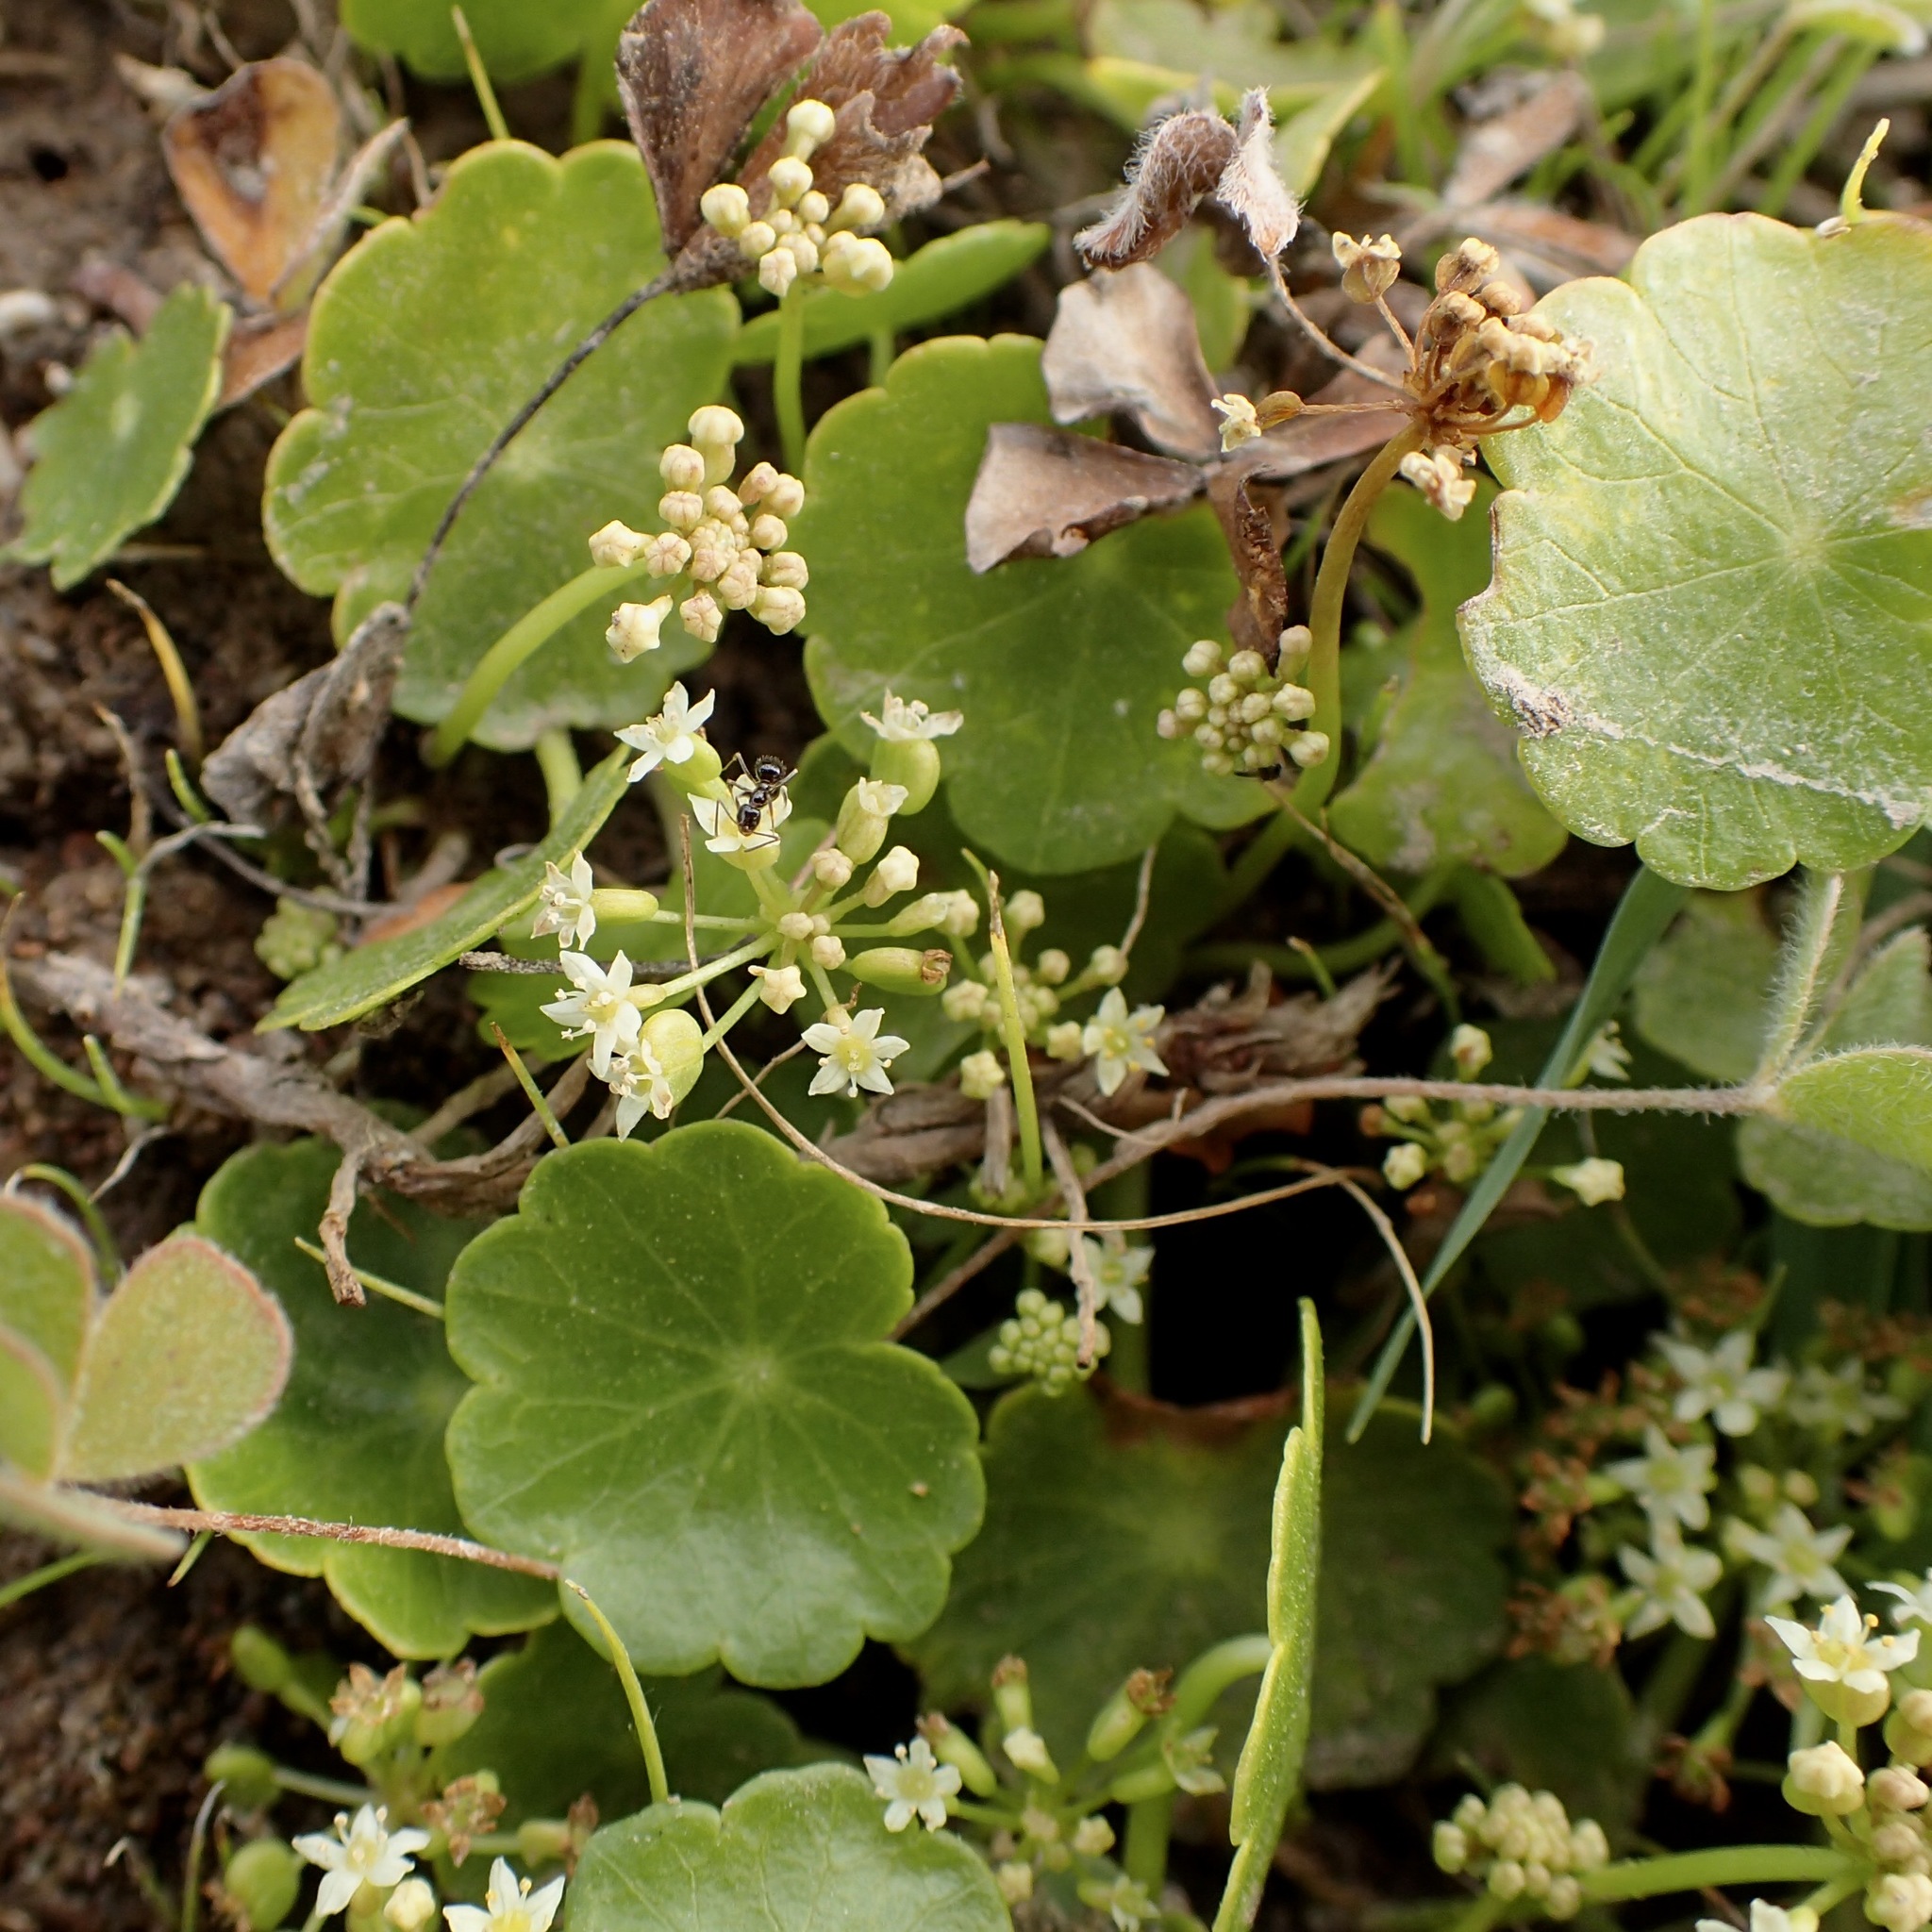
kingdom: Plantae
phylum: Tracheophyta
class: Magnoliopsida
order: Apiales
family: Araliaceae
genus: Hydrocotyle
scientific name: Hydrocotyle umbellata
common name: Water pennywort
